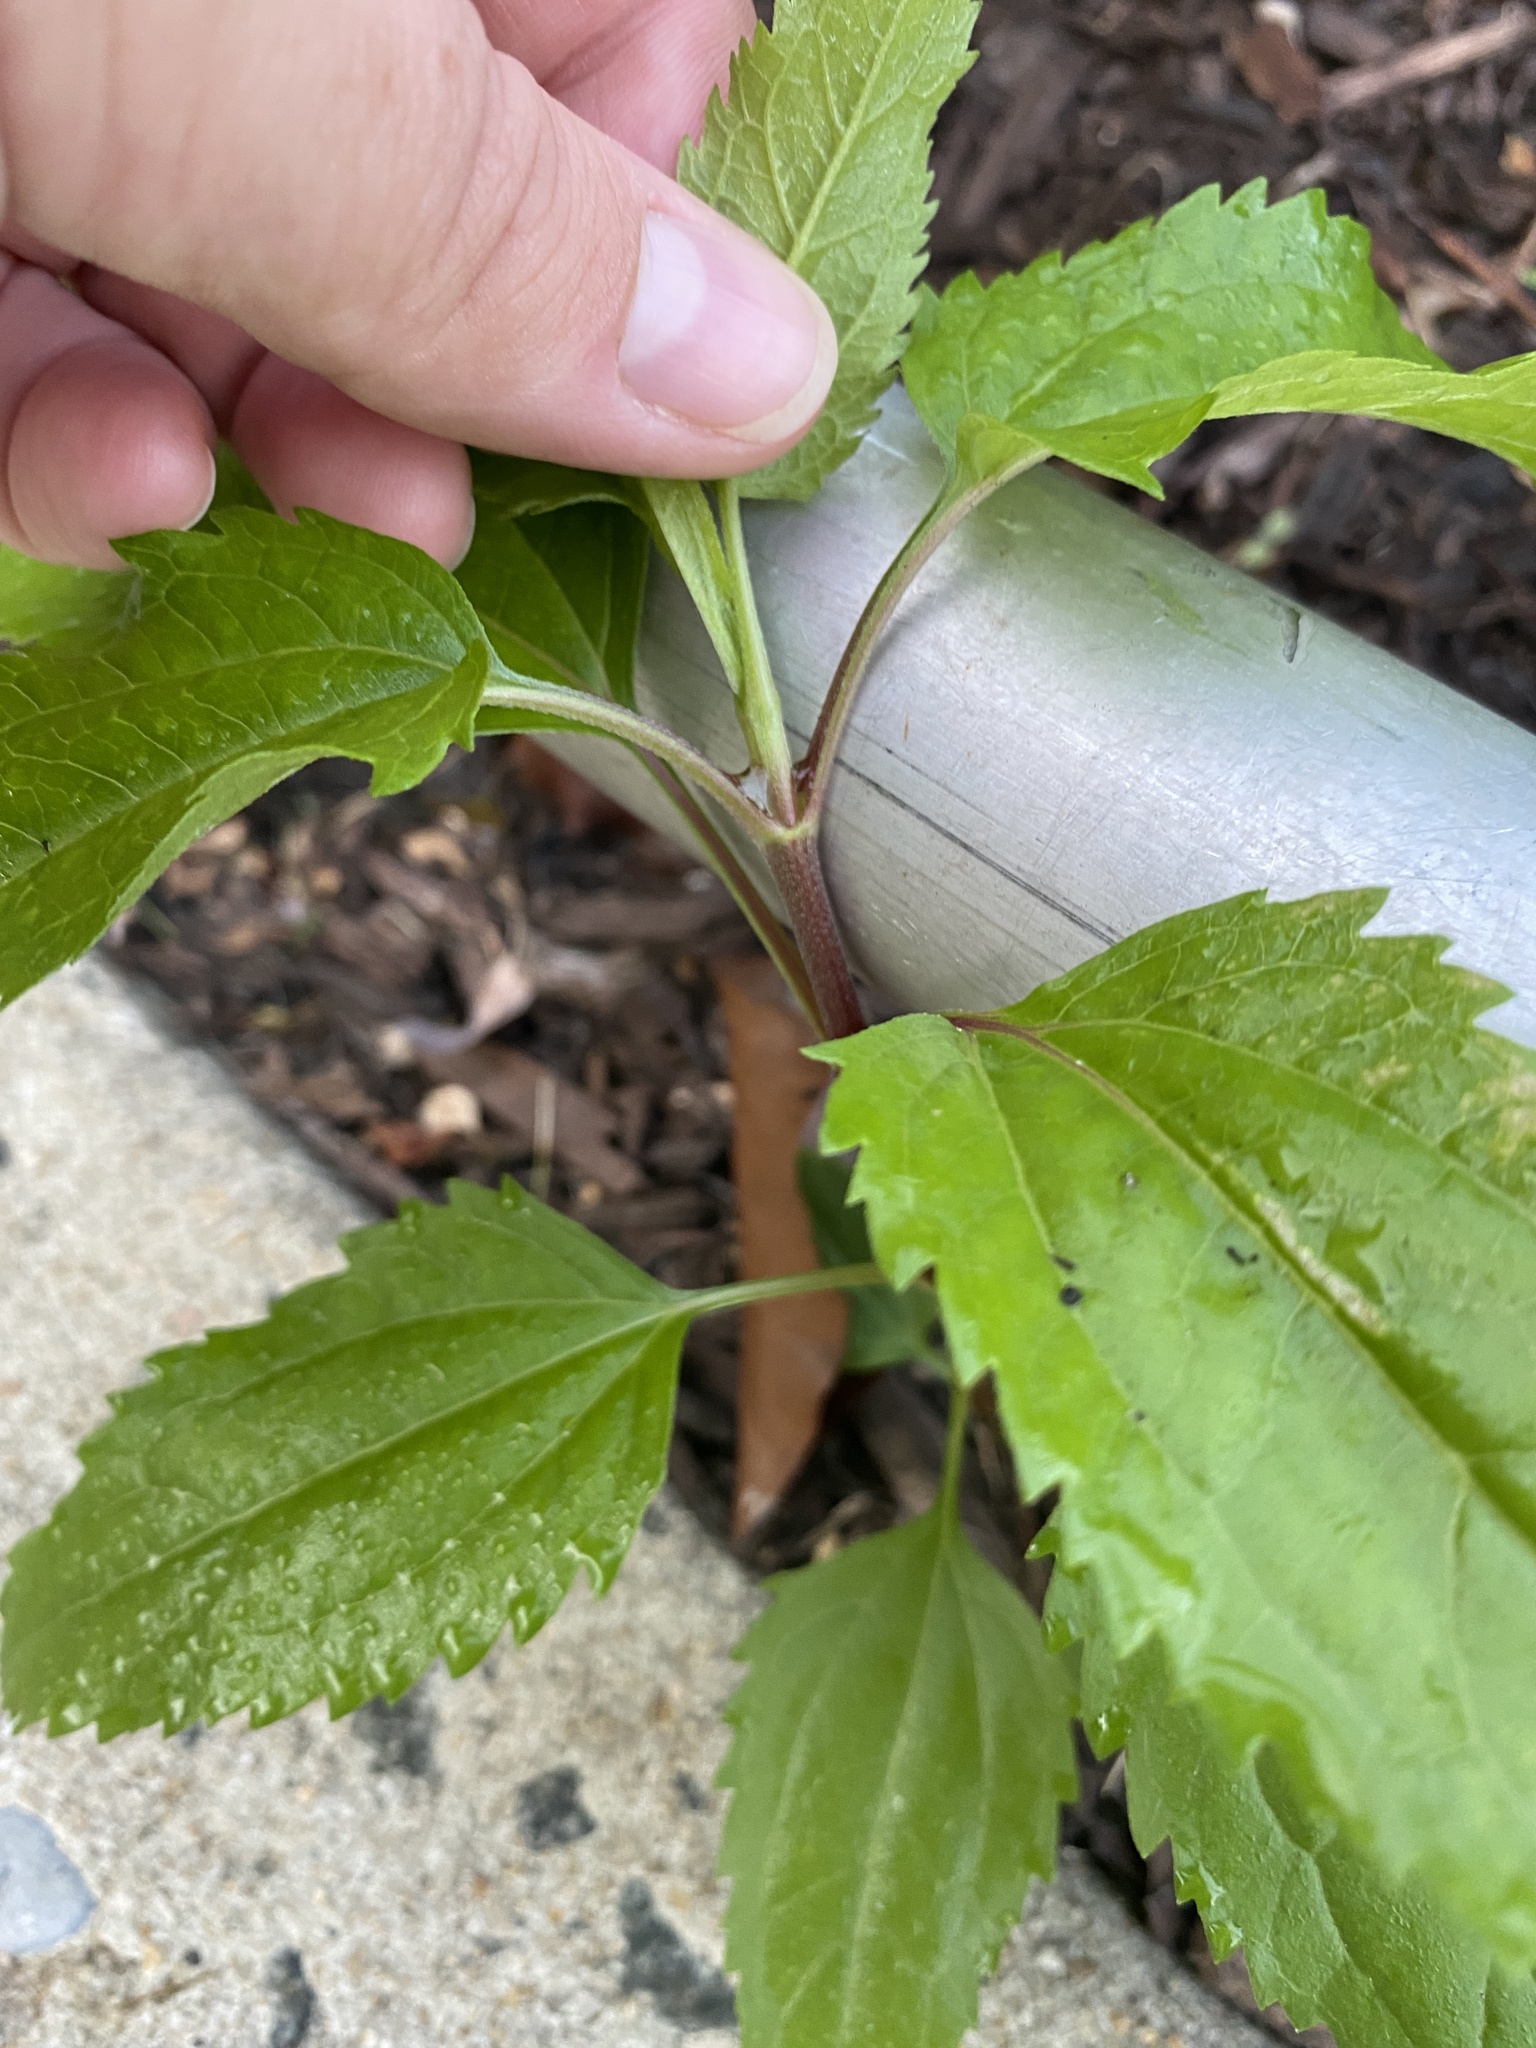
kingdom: Plantae
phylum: Tracheophyta
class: Magnoliopsida
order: Asterales
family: Asteraceae
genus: Eupatorium
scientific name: Eupatorium serotinum
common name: Late boneset
